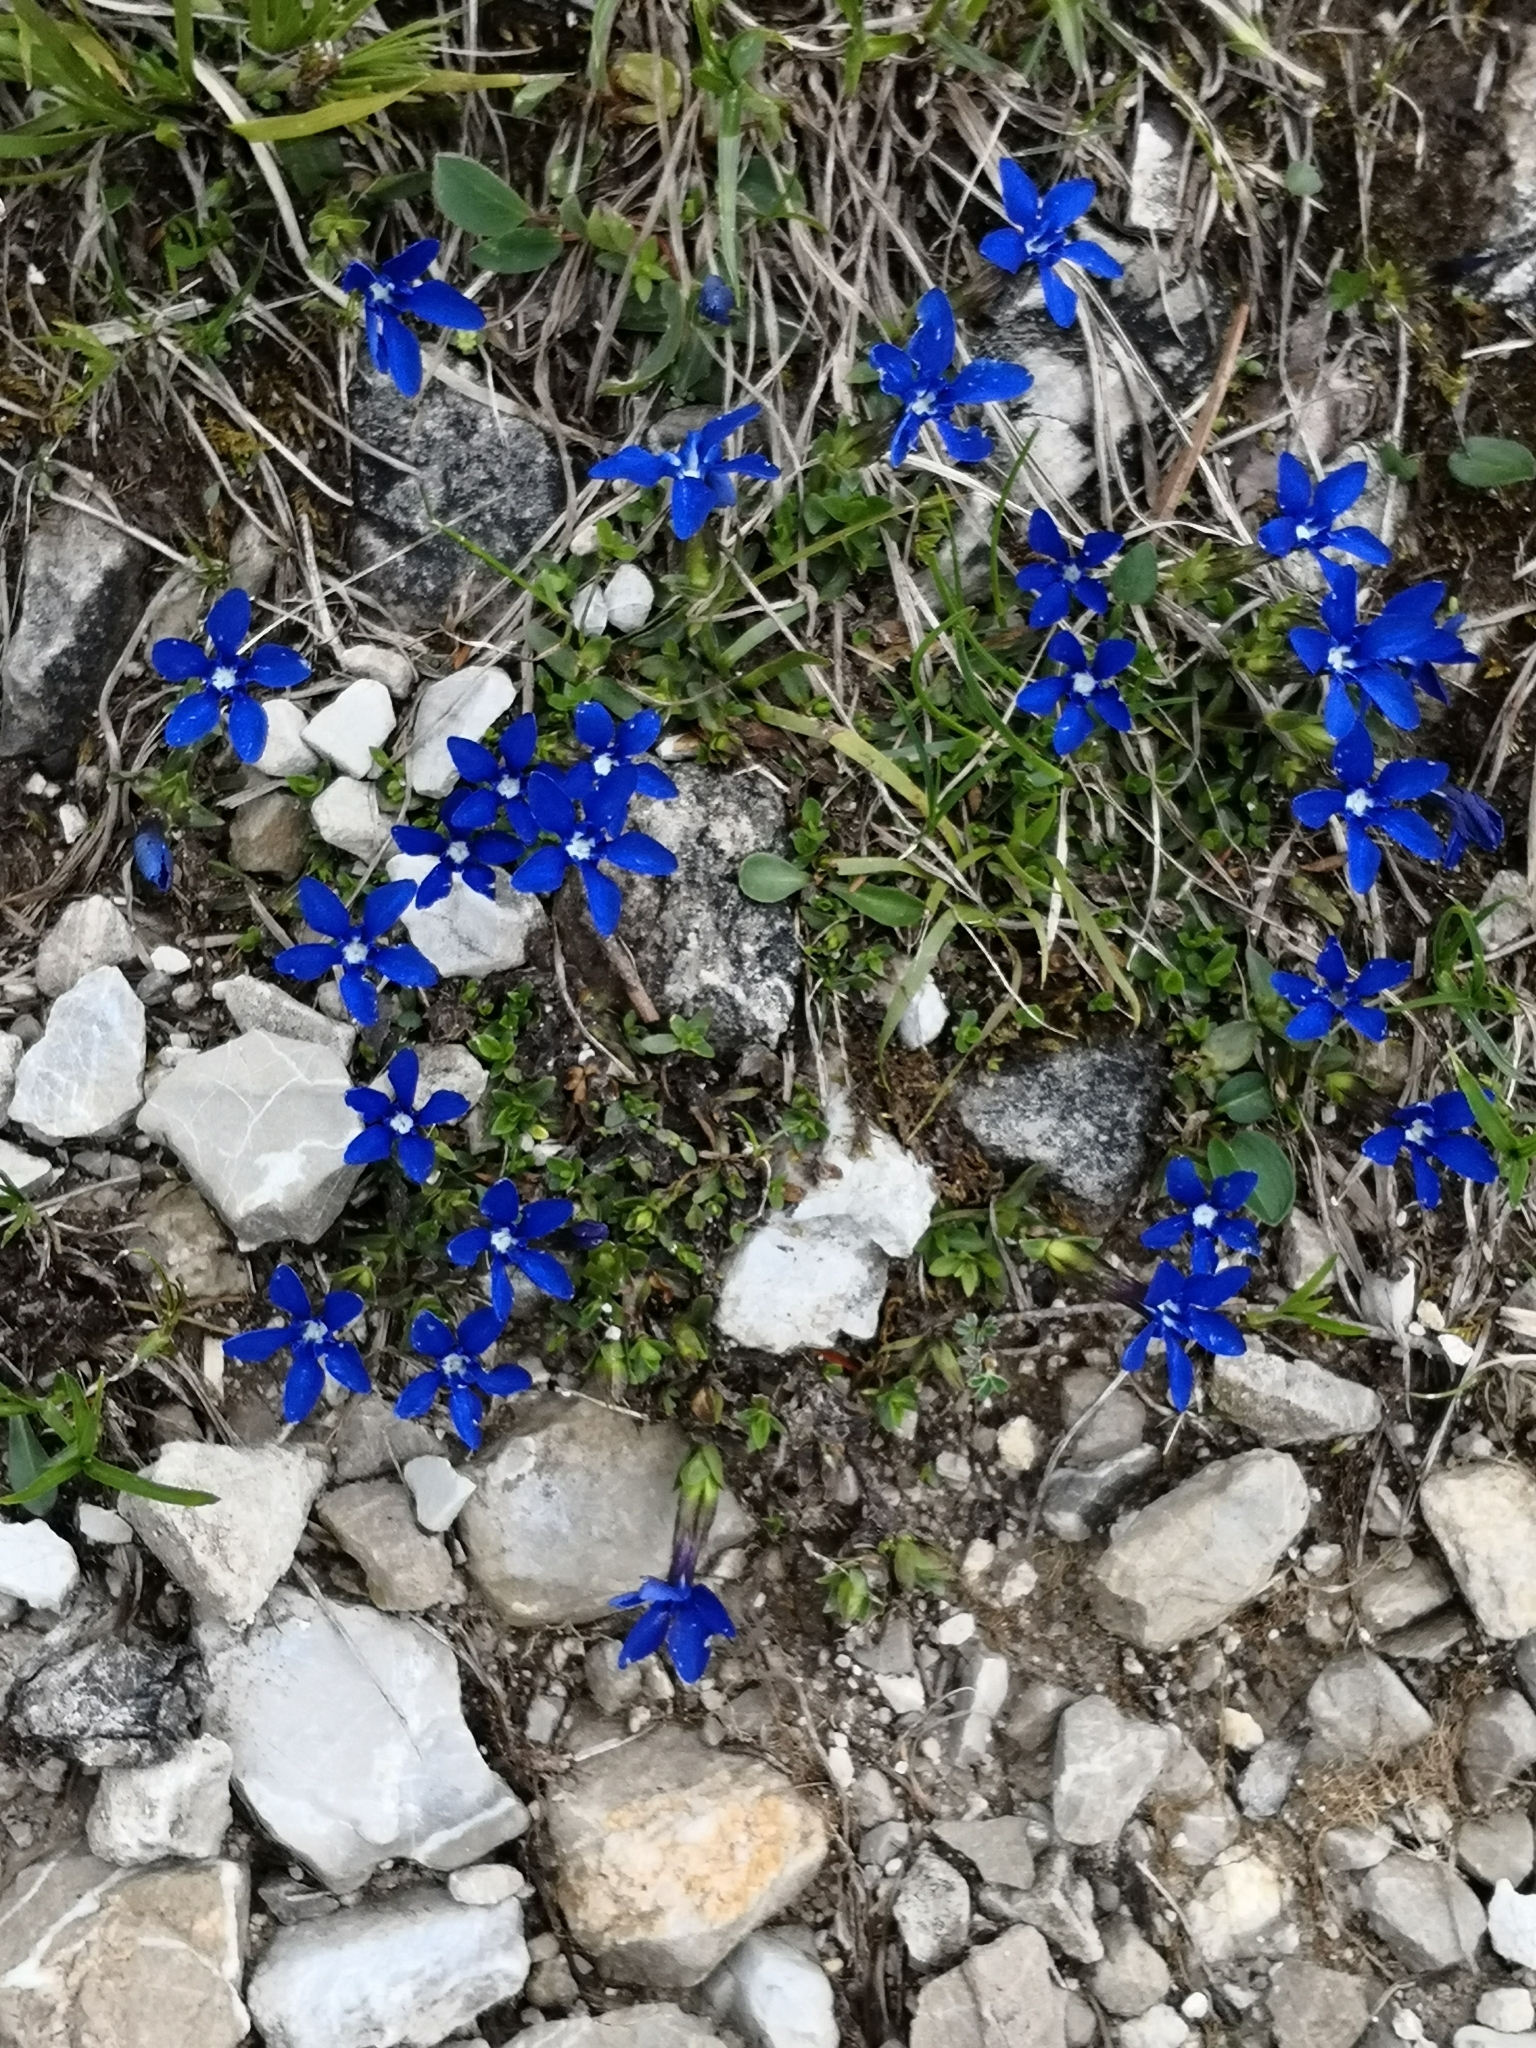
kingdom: Plantae
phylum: Tracheophyta
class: Magnoliopsida
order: Gentianales
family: Gentianaceae
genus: Gentiana
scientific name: Gentiana verna
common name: Spring gentian
